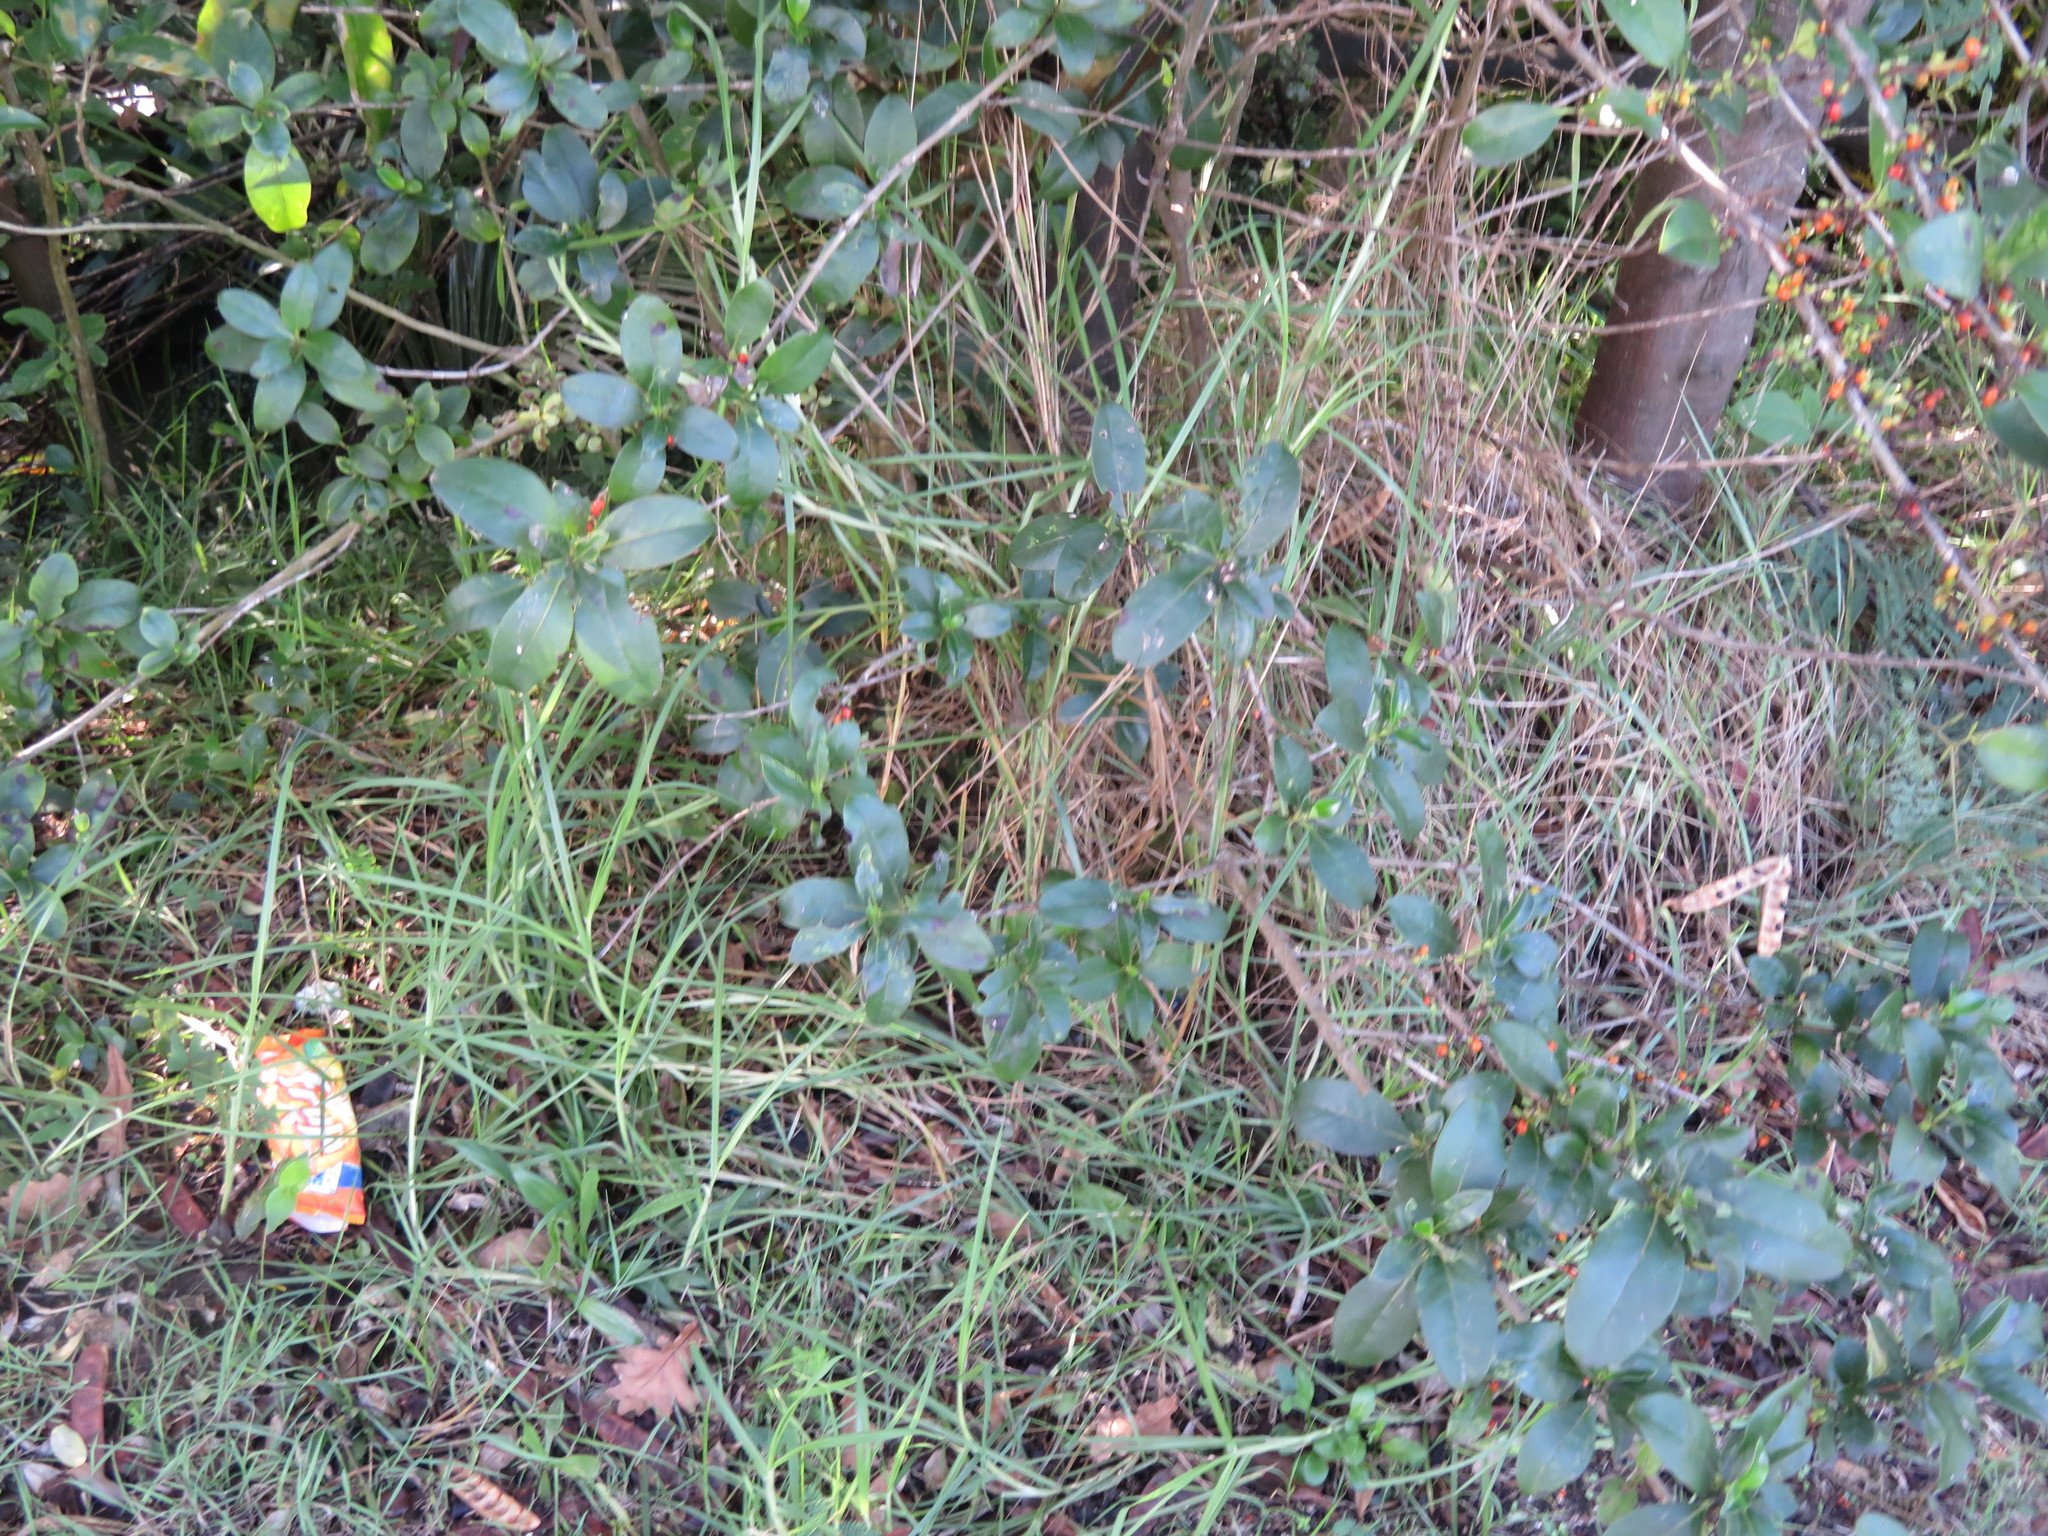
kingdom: Plantae
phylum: Tracheophyta
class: Magnoliopsida
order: Gentianales
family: Rubiaceae
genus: Coprosma
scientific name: Coprosma robusta
